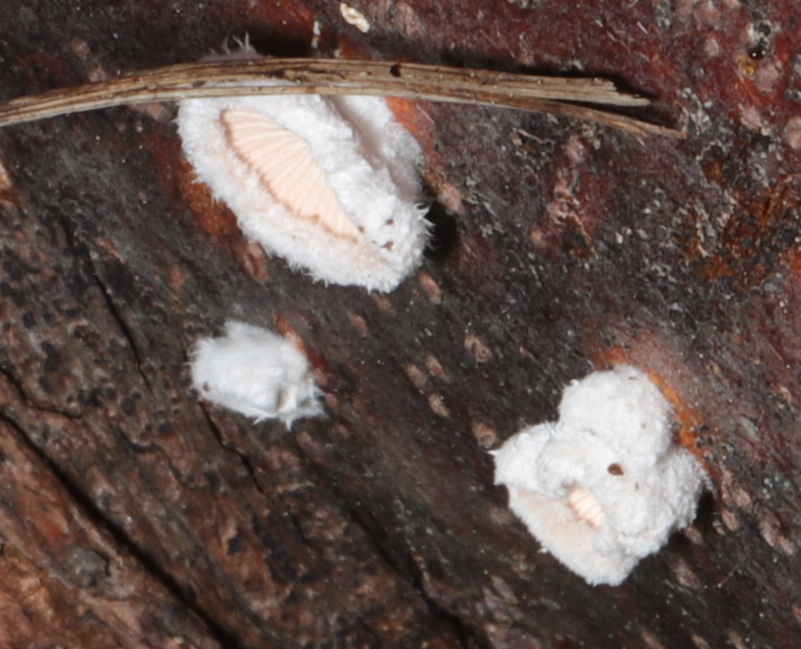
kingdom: Fungi
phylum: Basidiomycota
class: Agaricomycetes
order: Agaricales
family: Schizophyllaceae
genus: Schizophyllum
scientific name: Schizophyllum commune
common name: Common porecrust
